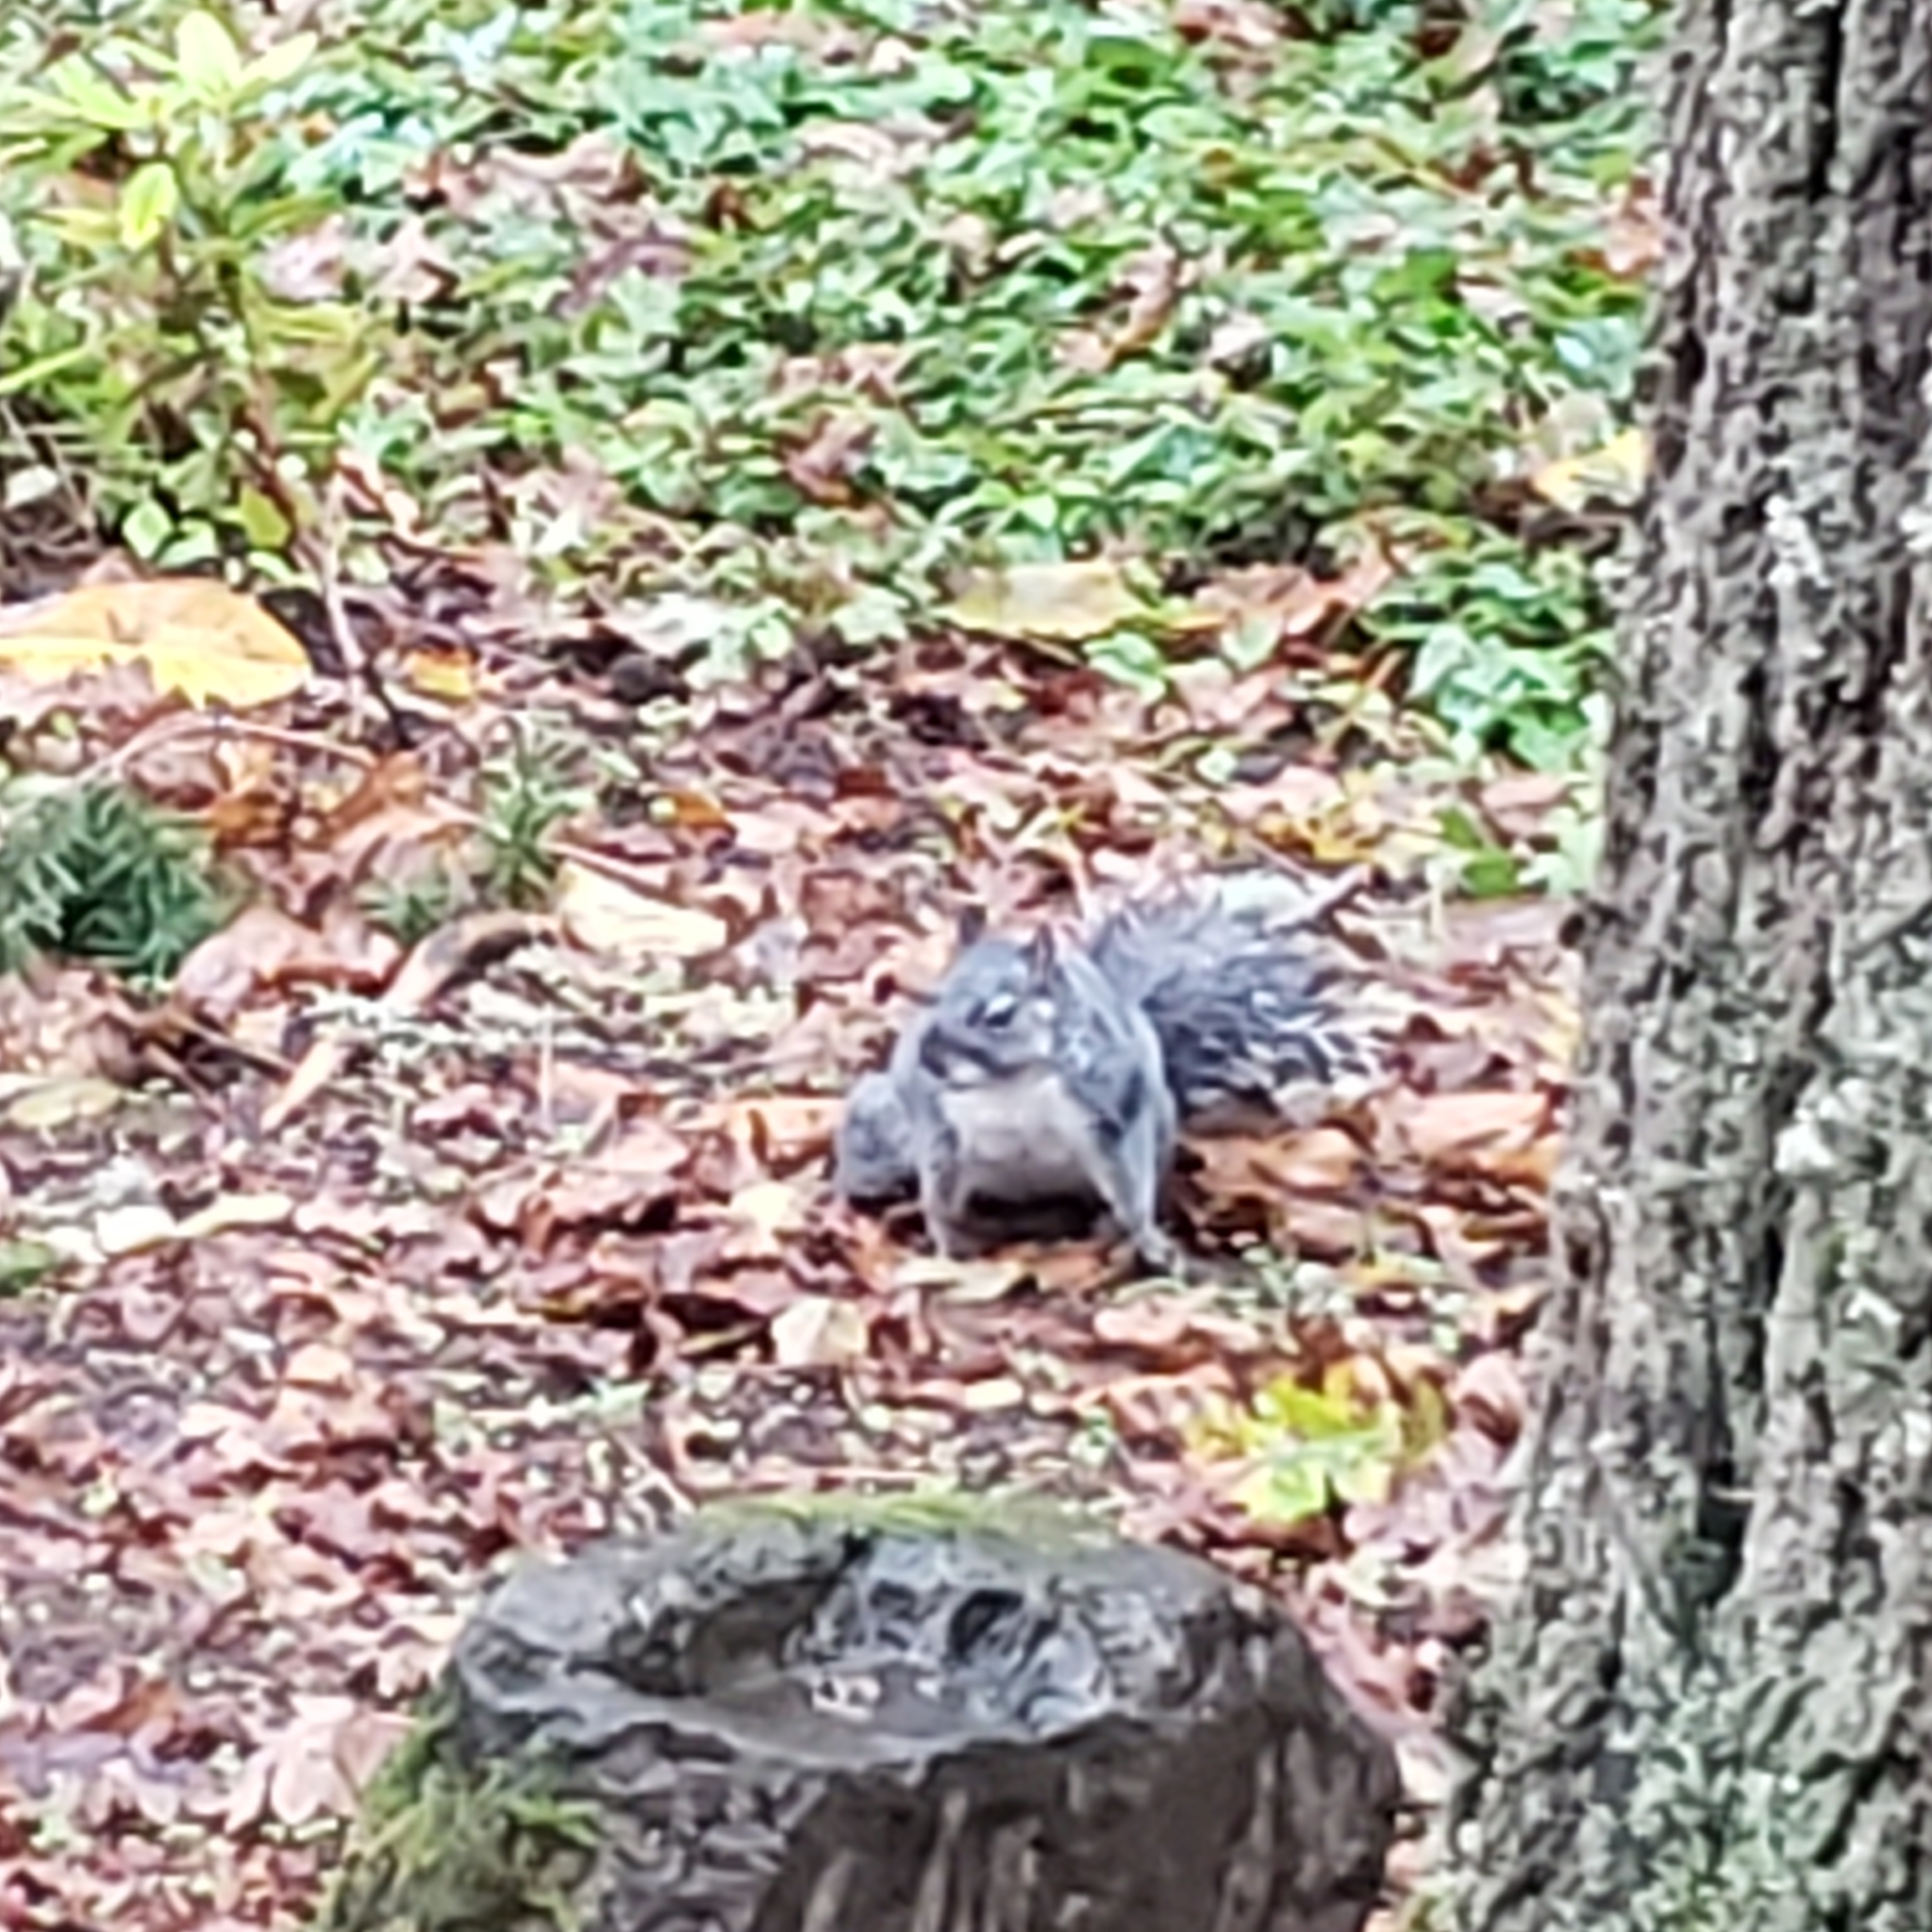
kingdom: Animalia
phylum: Chordata
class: Mammalia
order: Rodentia
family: Sciuridae
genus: Sciurus
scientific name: Sciurus griseus
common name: Western gray squirrel
